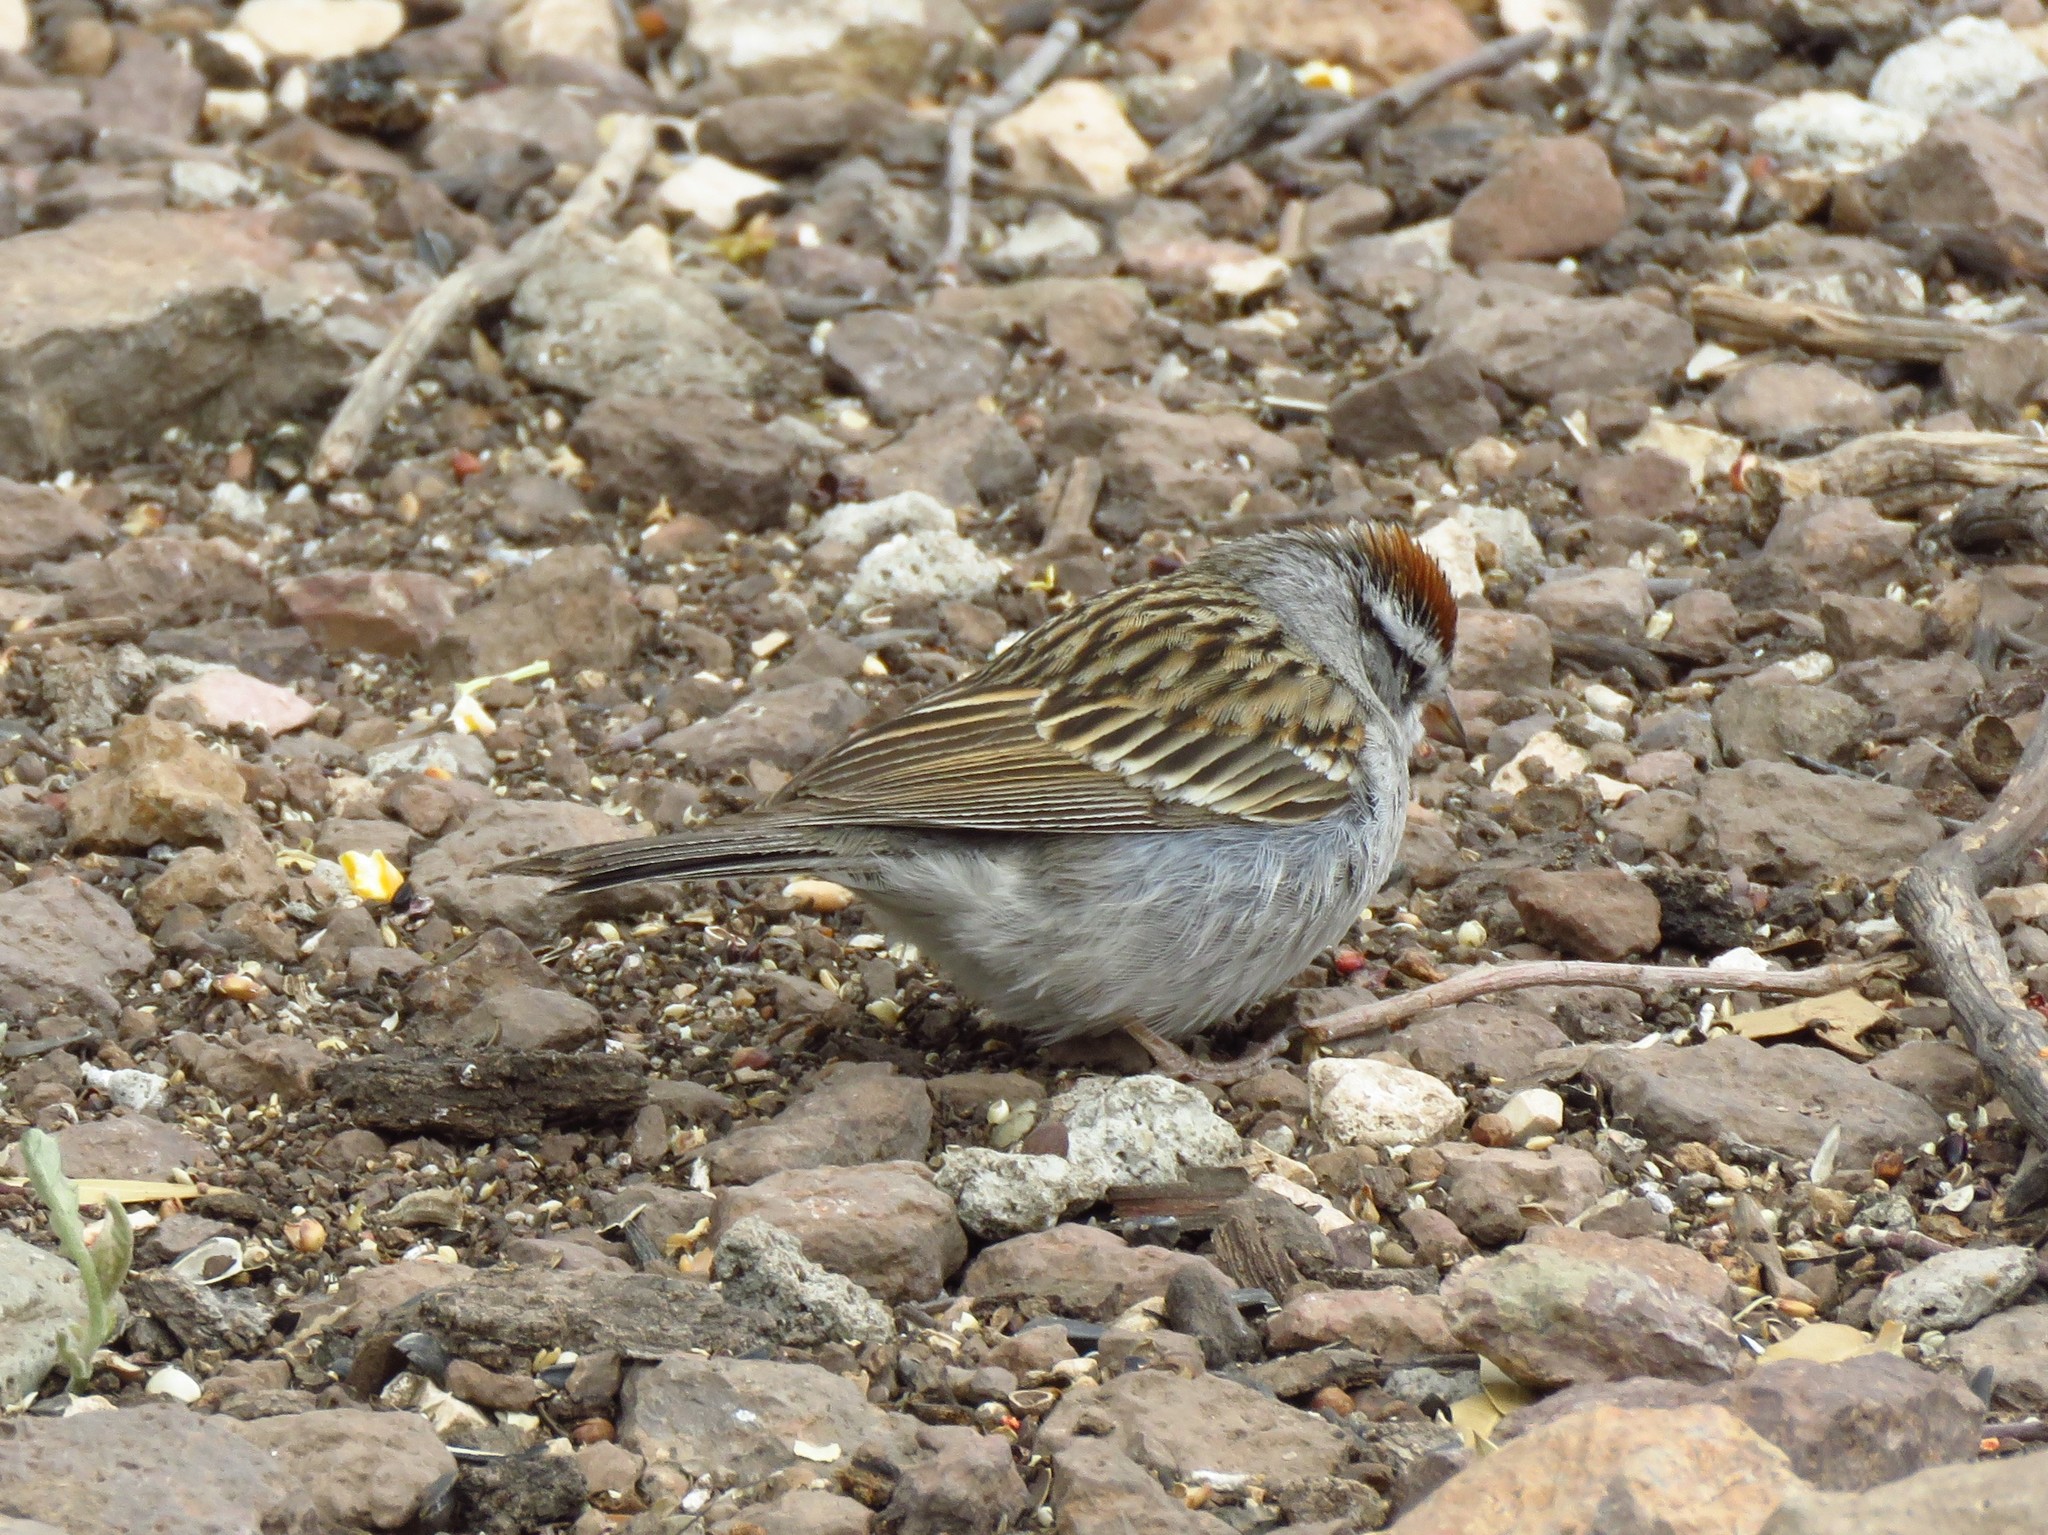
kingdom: Animalia
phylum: Chordata
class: Aves
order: Passeriformes
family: Passerellidae
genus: Spizella
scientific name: Spizella passerina
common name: Chipping sparrow
